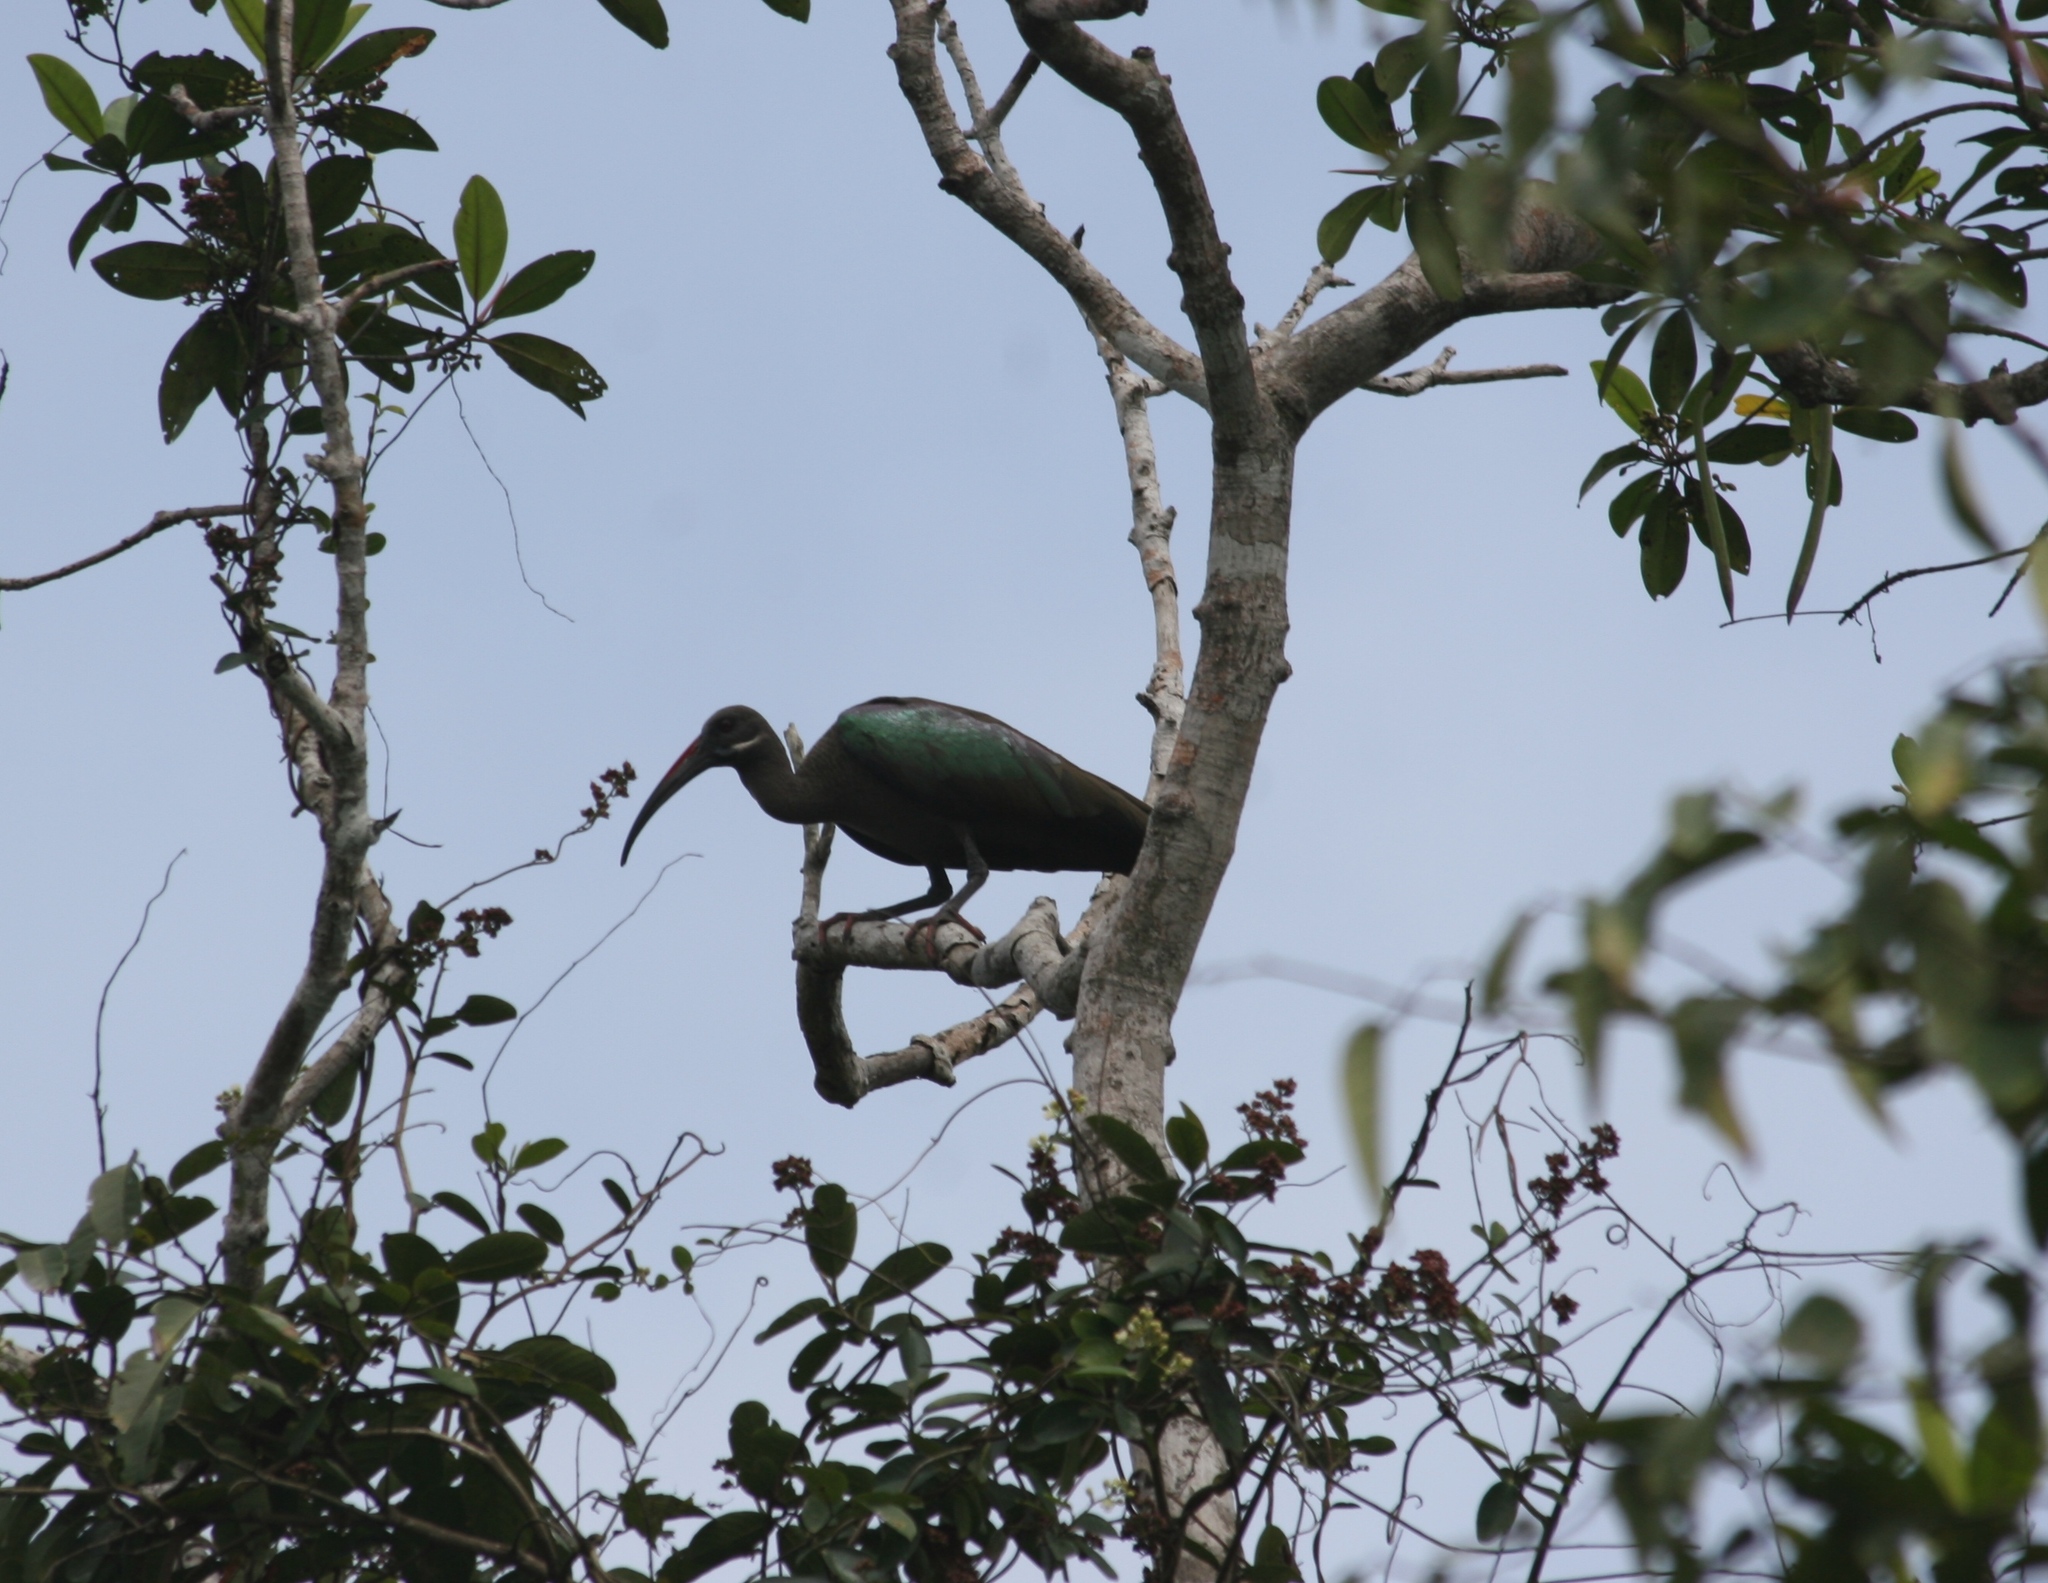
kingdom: Animalia
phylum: Chordata
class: Aves
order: Pelecaniformes
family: Threskiornithidae
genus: Bostrychia
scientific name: Bostrychia hagedash
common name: Hadada ibis
